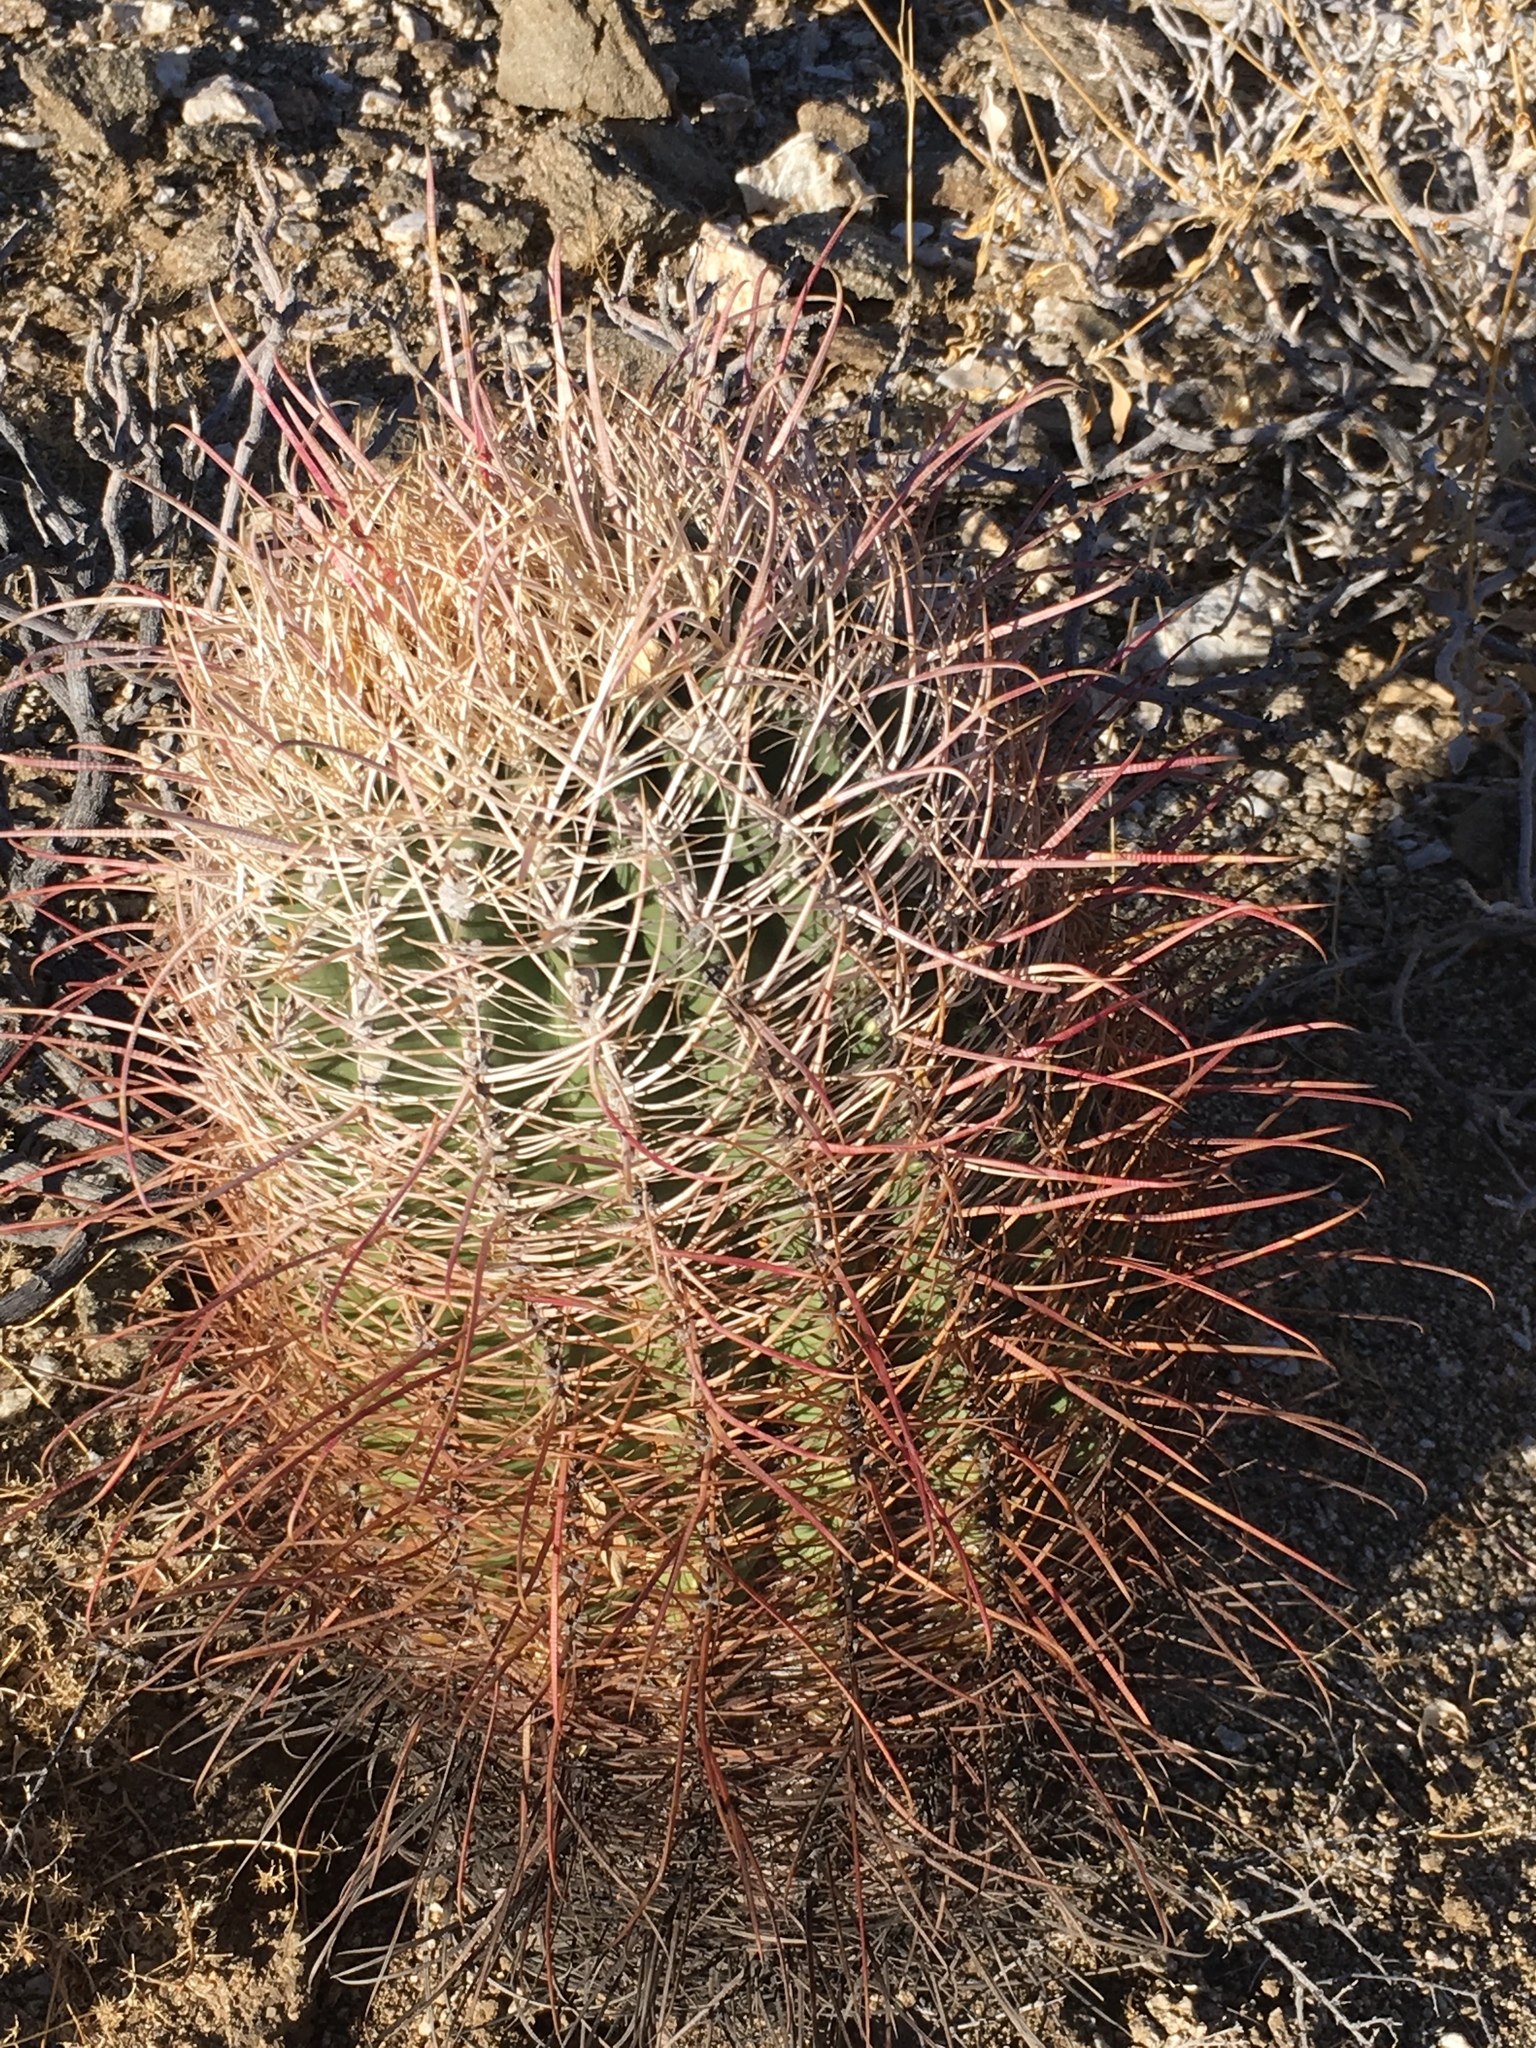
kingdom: Plantae
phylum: Tracheophyta
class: Magnoliopsida
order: Caryophyllales
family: Cactaceae
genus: Ferocactus
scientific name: Ferocactus cylindraceus
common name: California barrel cactus
